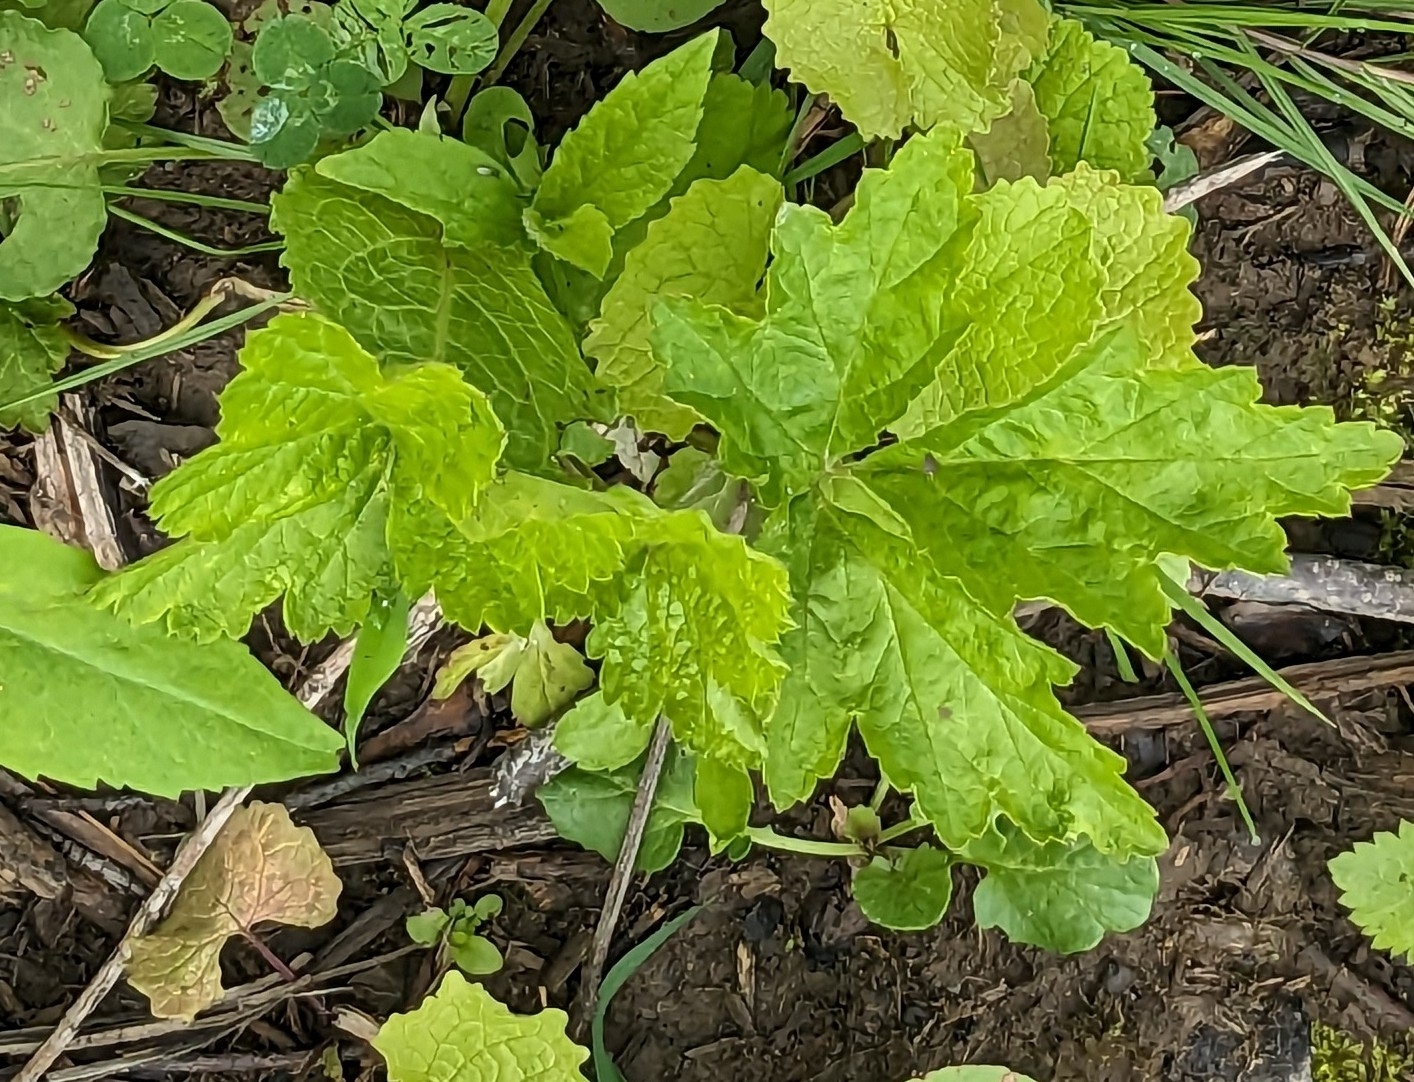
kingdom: Plantae
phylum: Tracheophyta
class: Magnoliopsida
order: Asterales
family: Asteraceae
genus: Artemisia
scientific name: Artemisia vulgaris
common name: Mugwort
